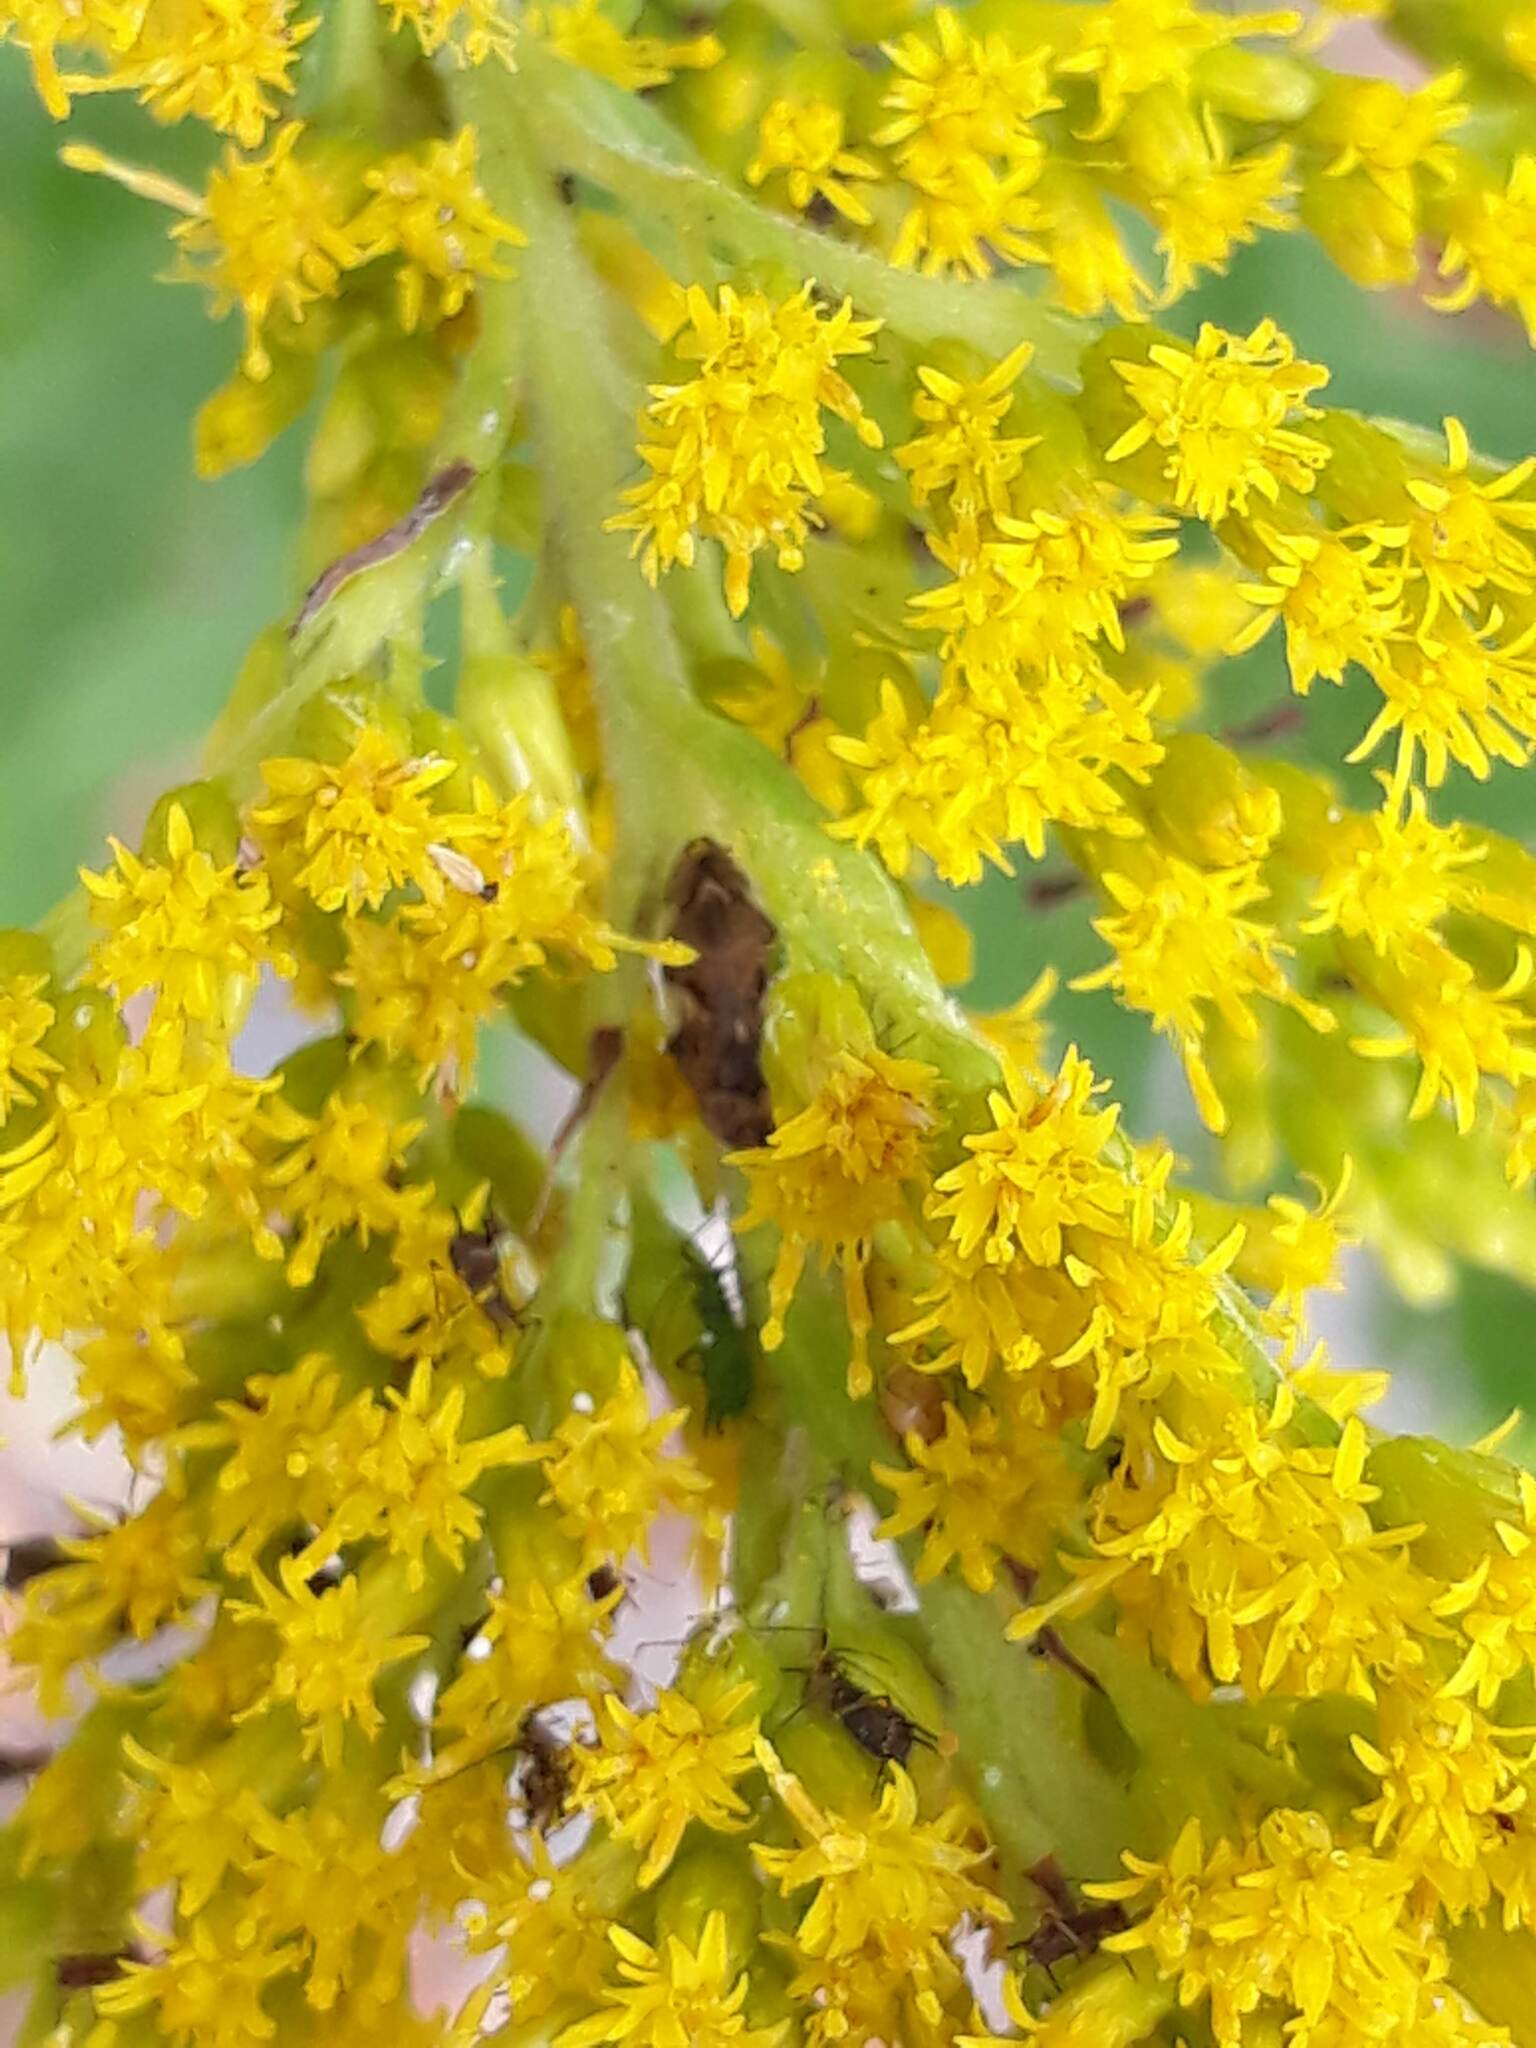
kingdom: Animalia
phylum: Arthropoda
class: Insecta
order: Hemiptera
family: Aphrophoridae
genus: Philaenus
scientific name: Philaenus spumarius
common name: Meadow spittlebug
